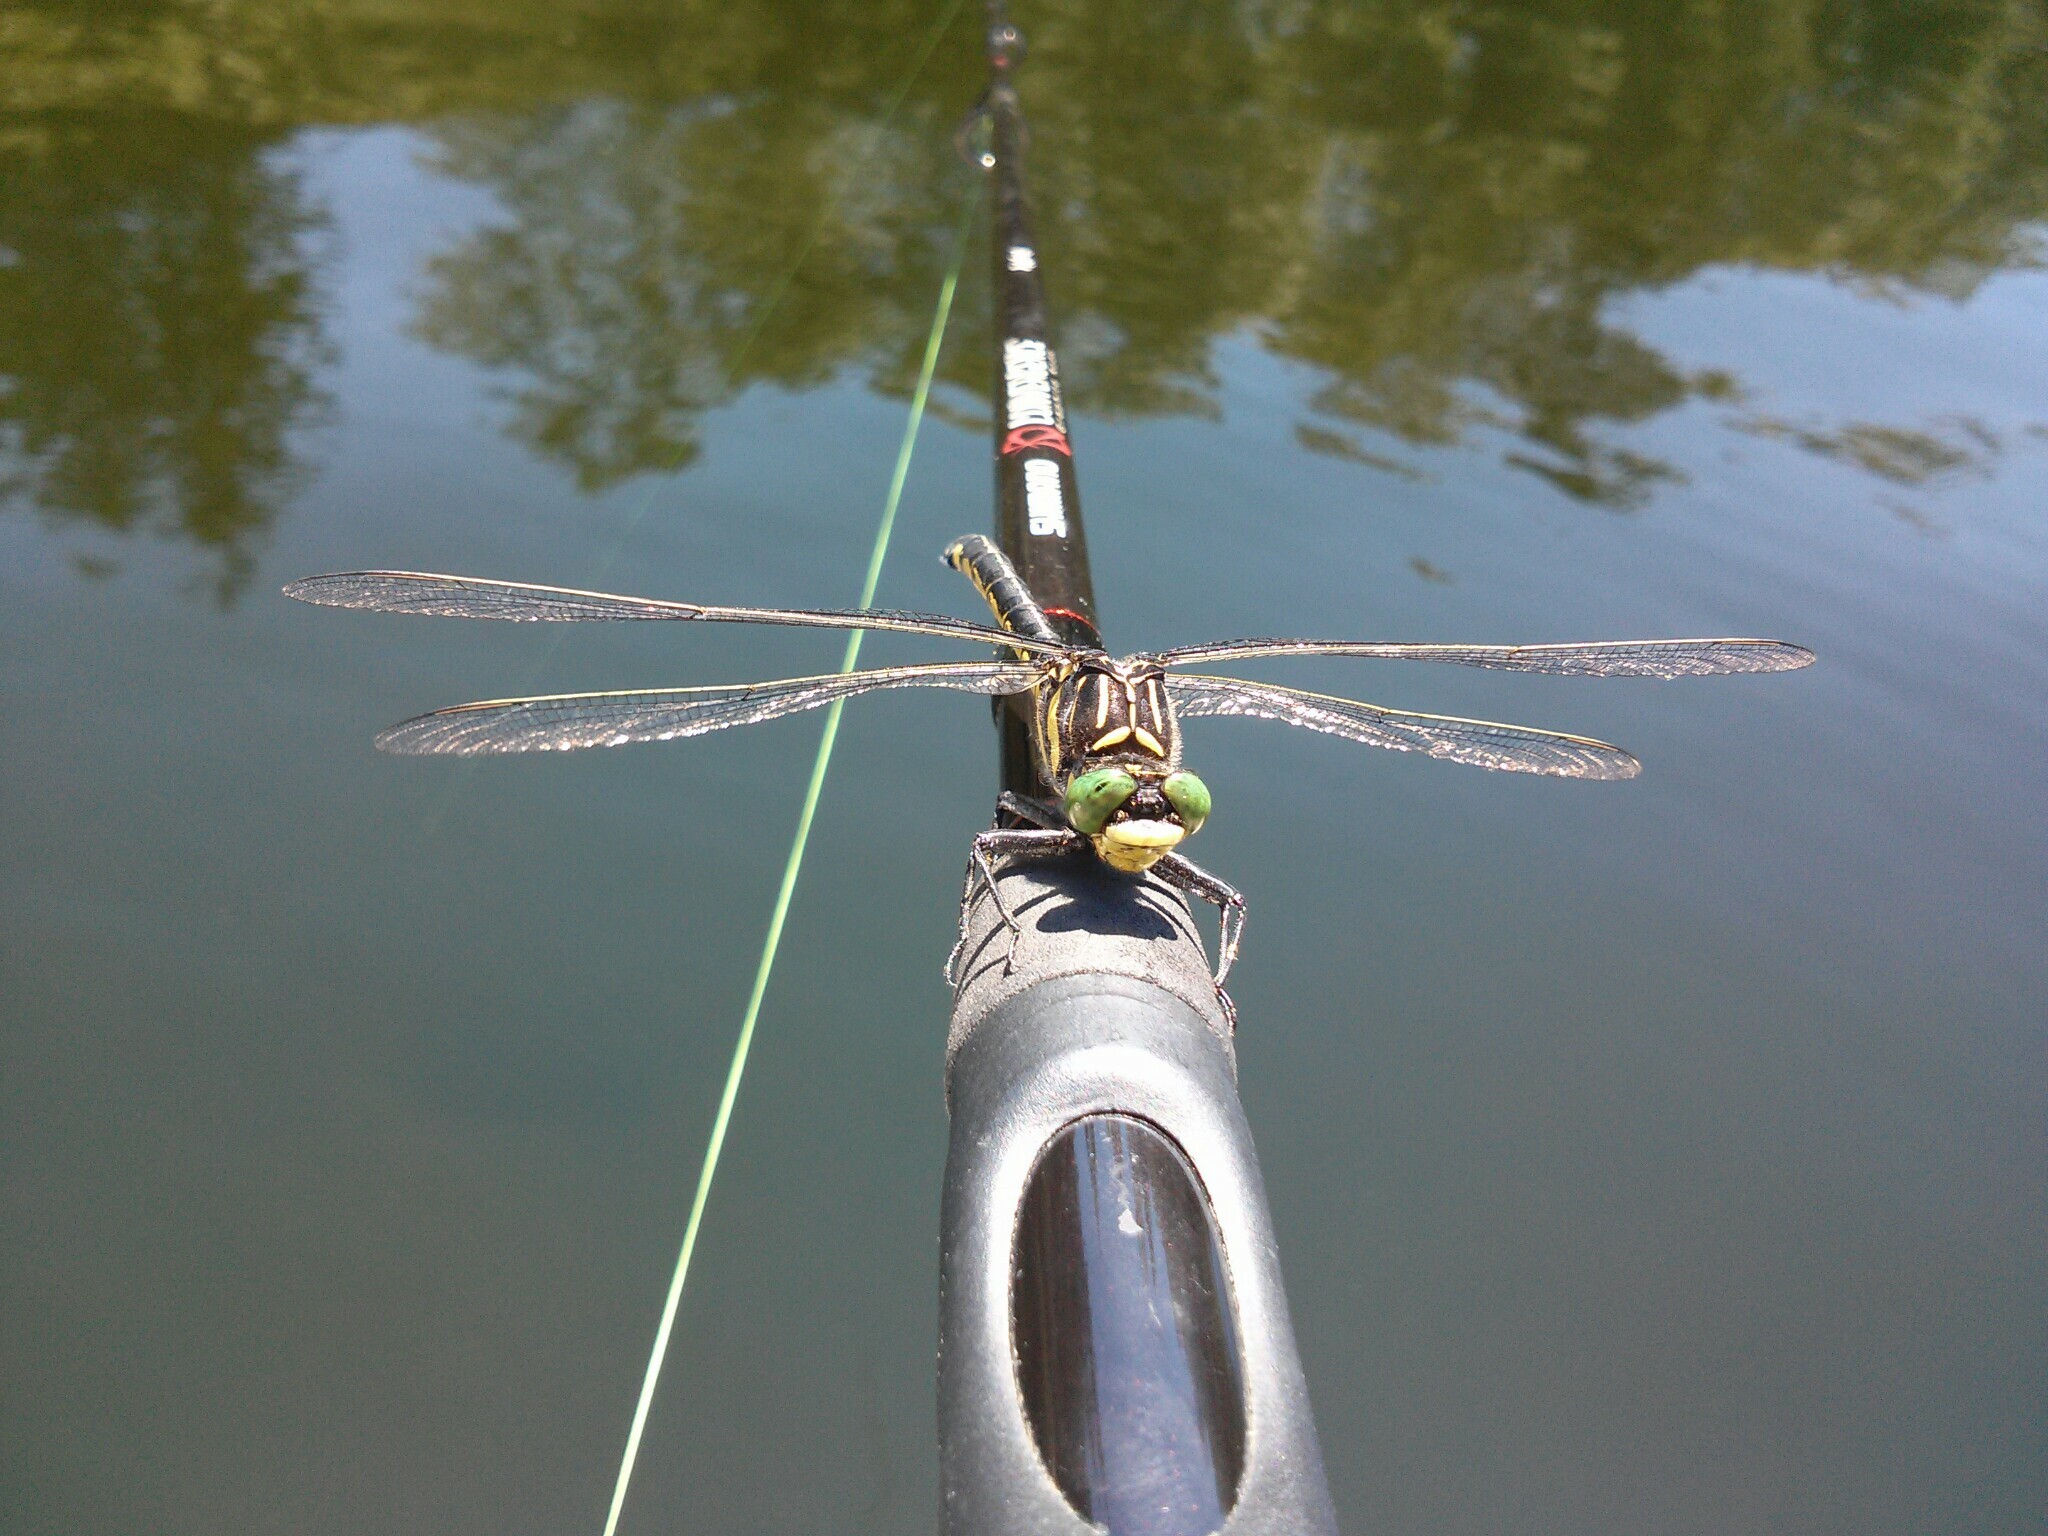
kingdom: Animalia
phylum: Arthropoda
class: Insecta
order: Odonata
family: Gomphidae
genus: Hagenius
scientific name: Hagenius brevistylus
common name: Dragonhunter
